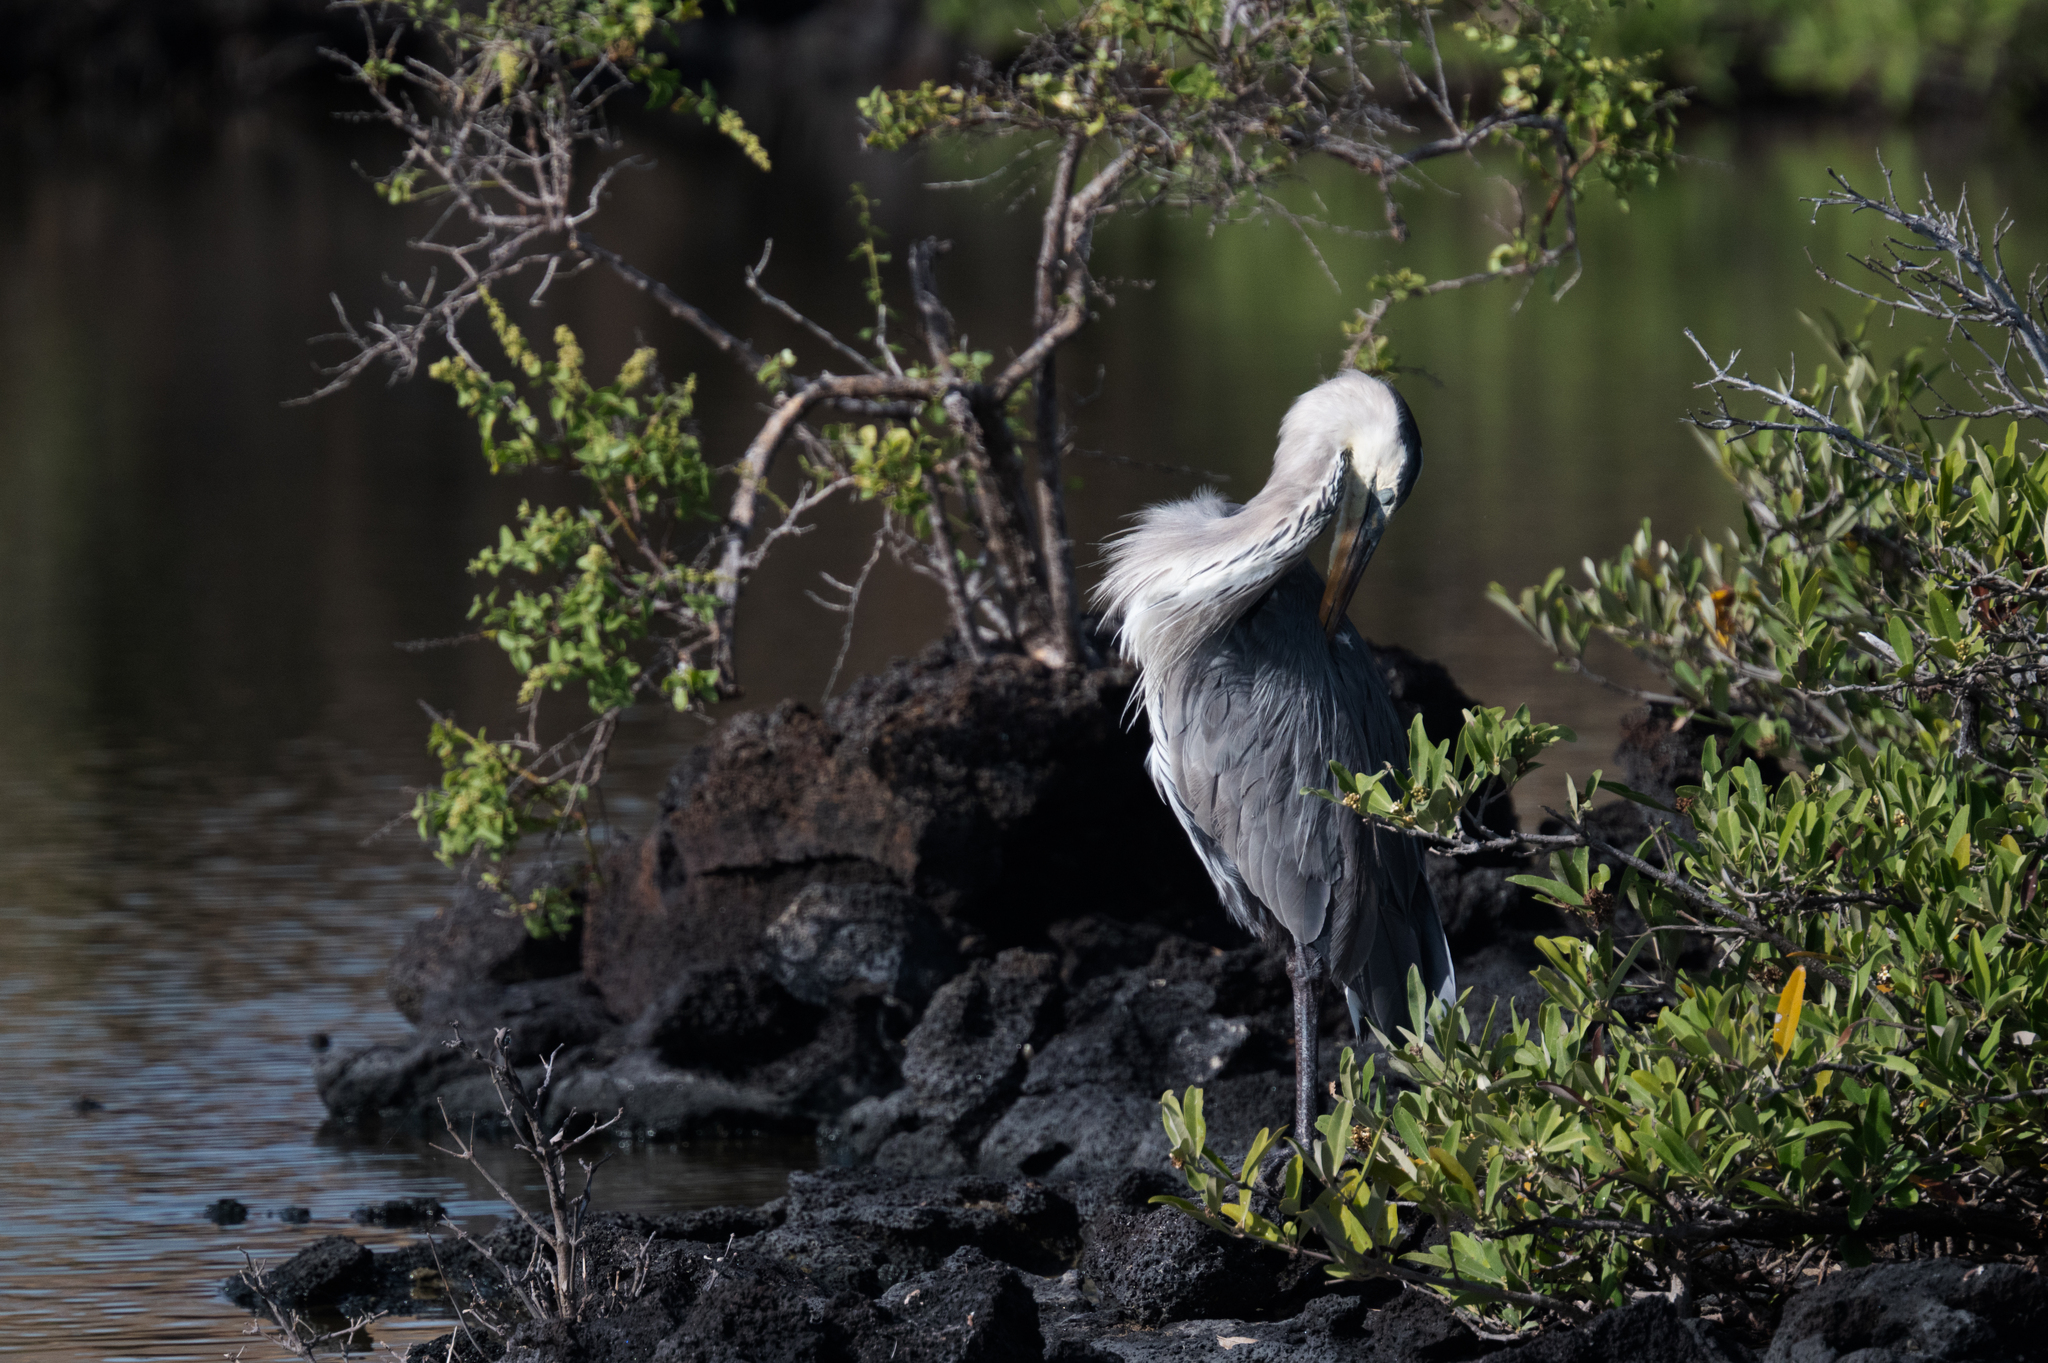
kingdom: Animalia
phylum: Chordata
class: Aves
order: Pelecaniformes
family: Ardeidae
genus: Ardea
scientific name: Ardea herodias
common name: Great blue heron
